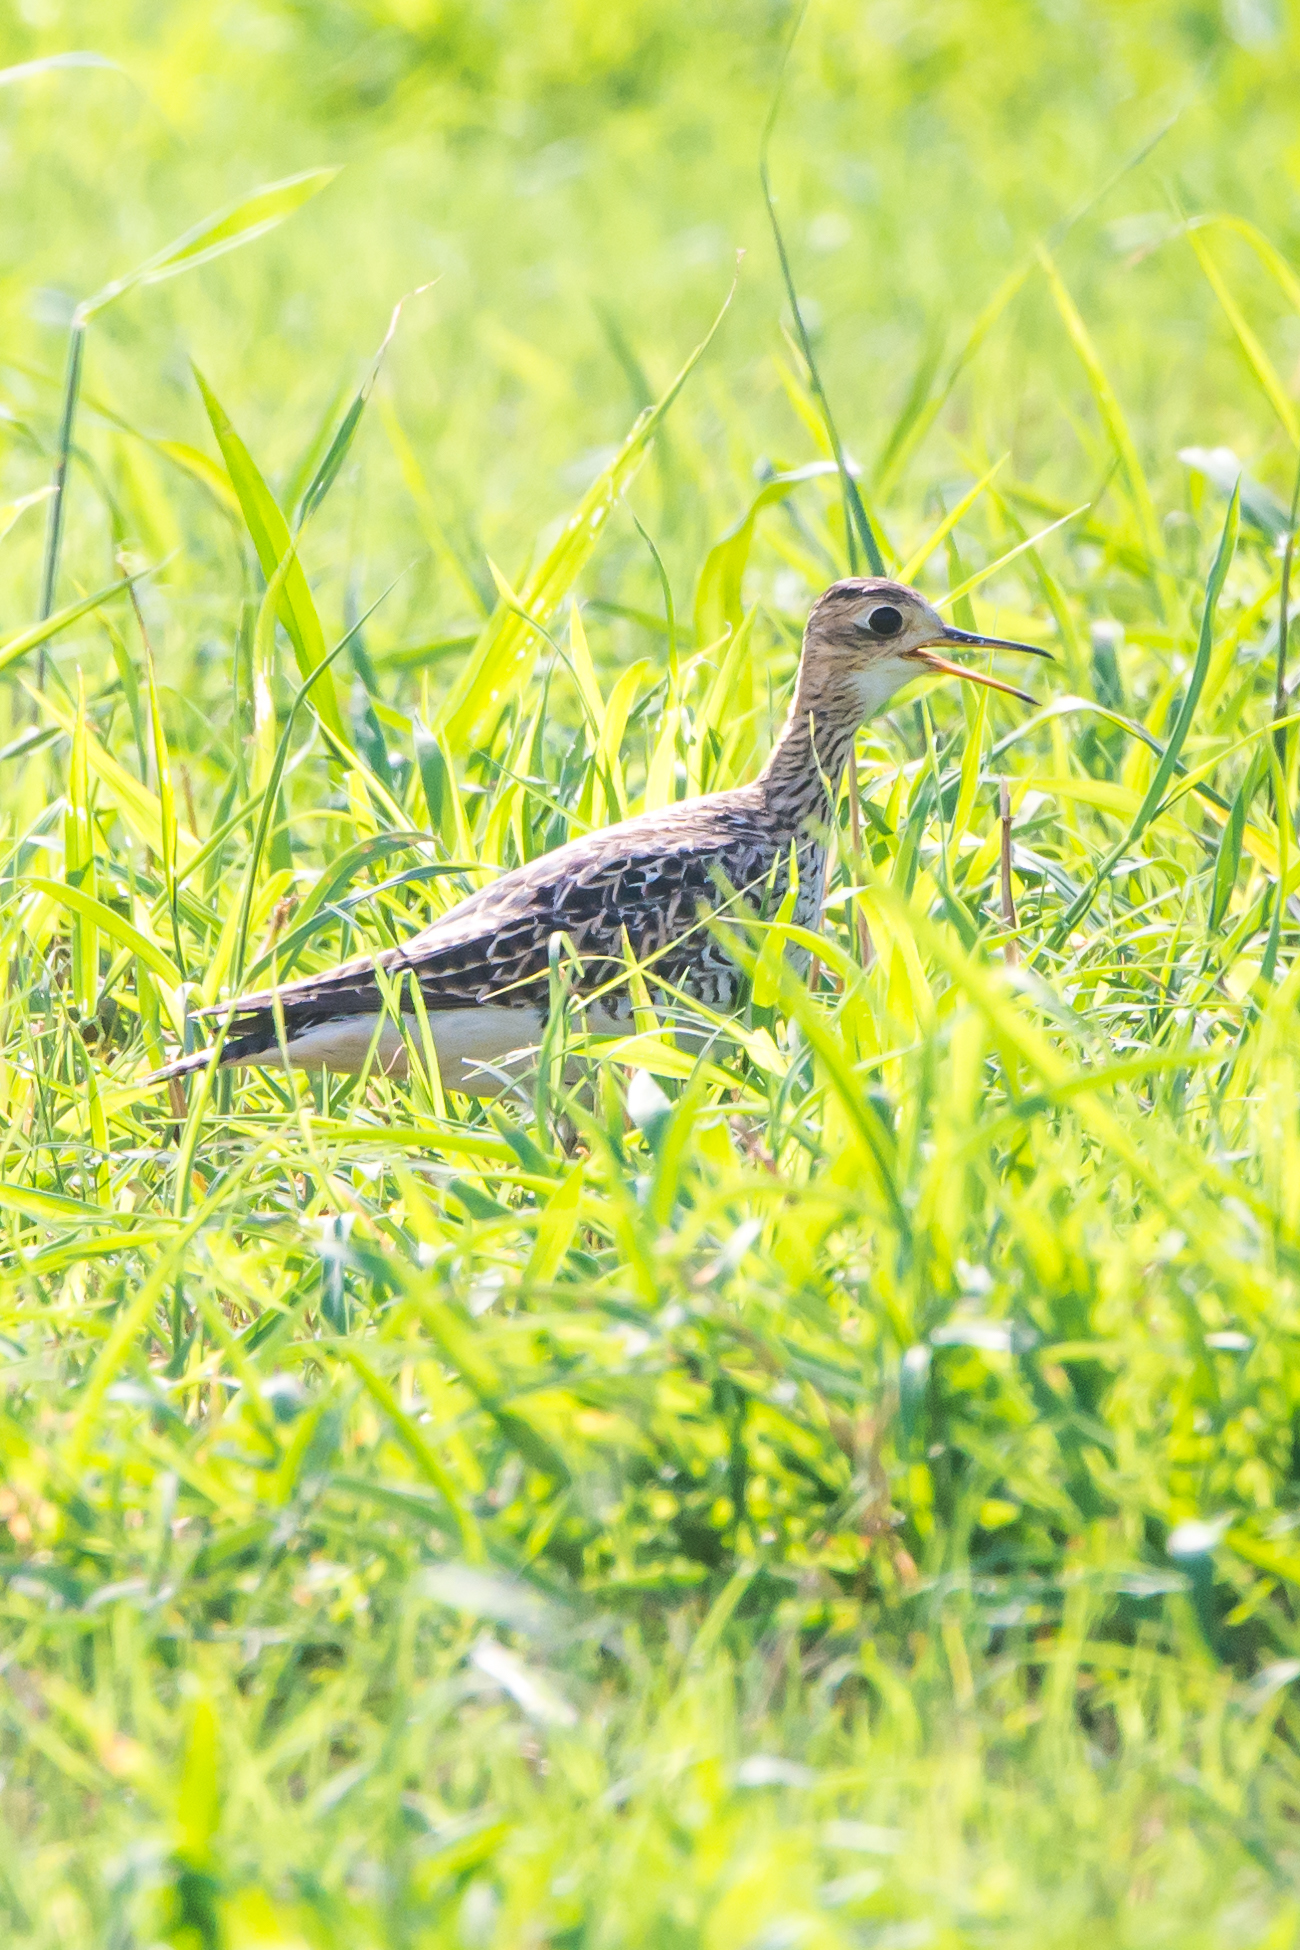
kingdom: Animalia
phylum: Chordata
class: Aves
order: Charadriiformes
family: Scolopacidae
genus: Bartramia
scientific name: Bartramia longicauda
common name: Upland sandpiper
